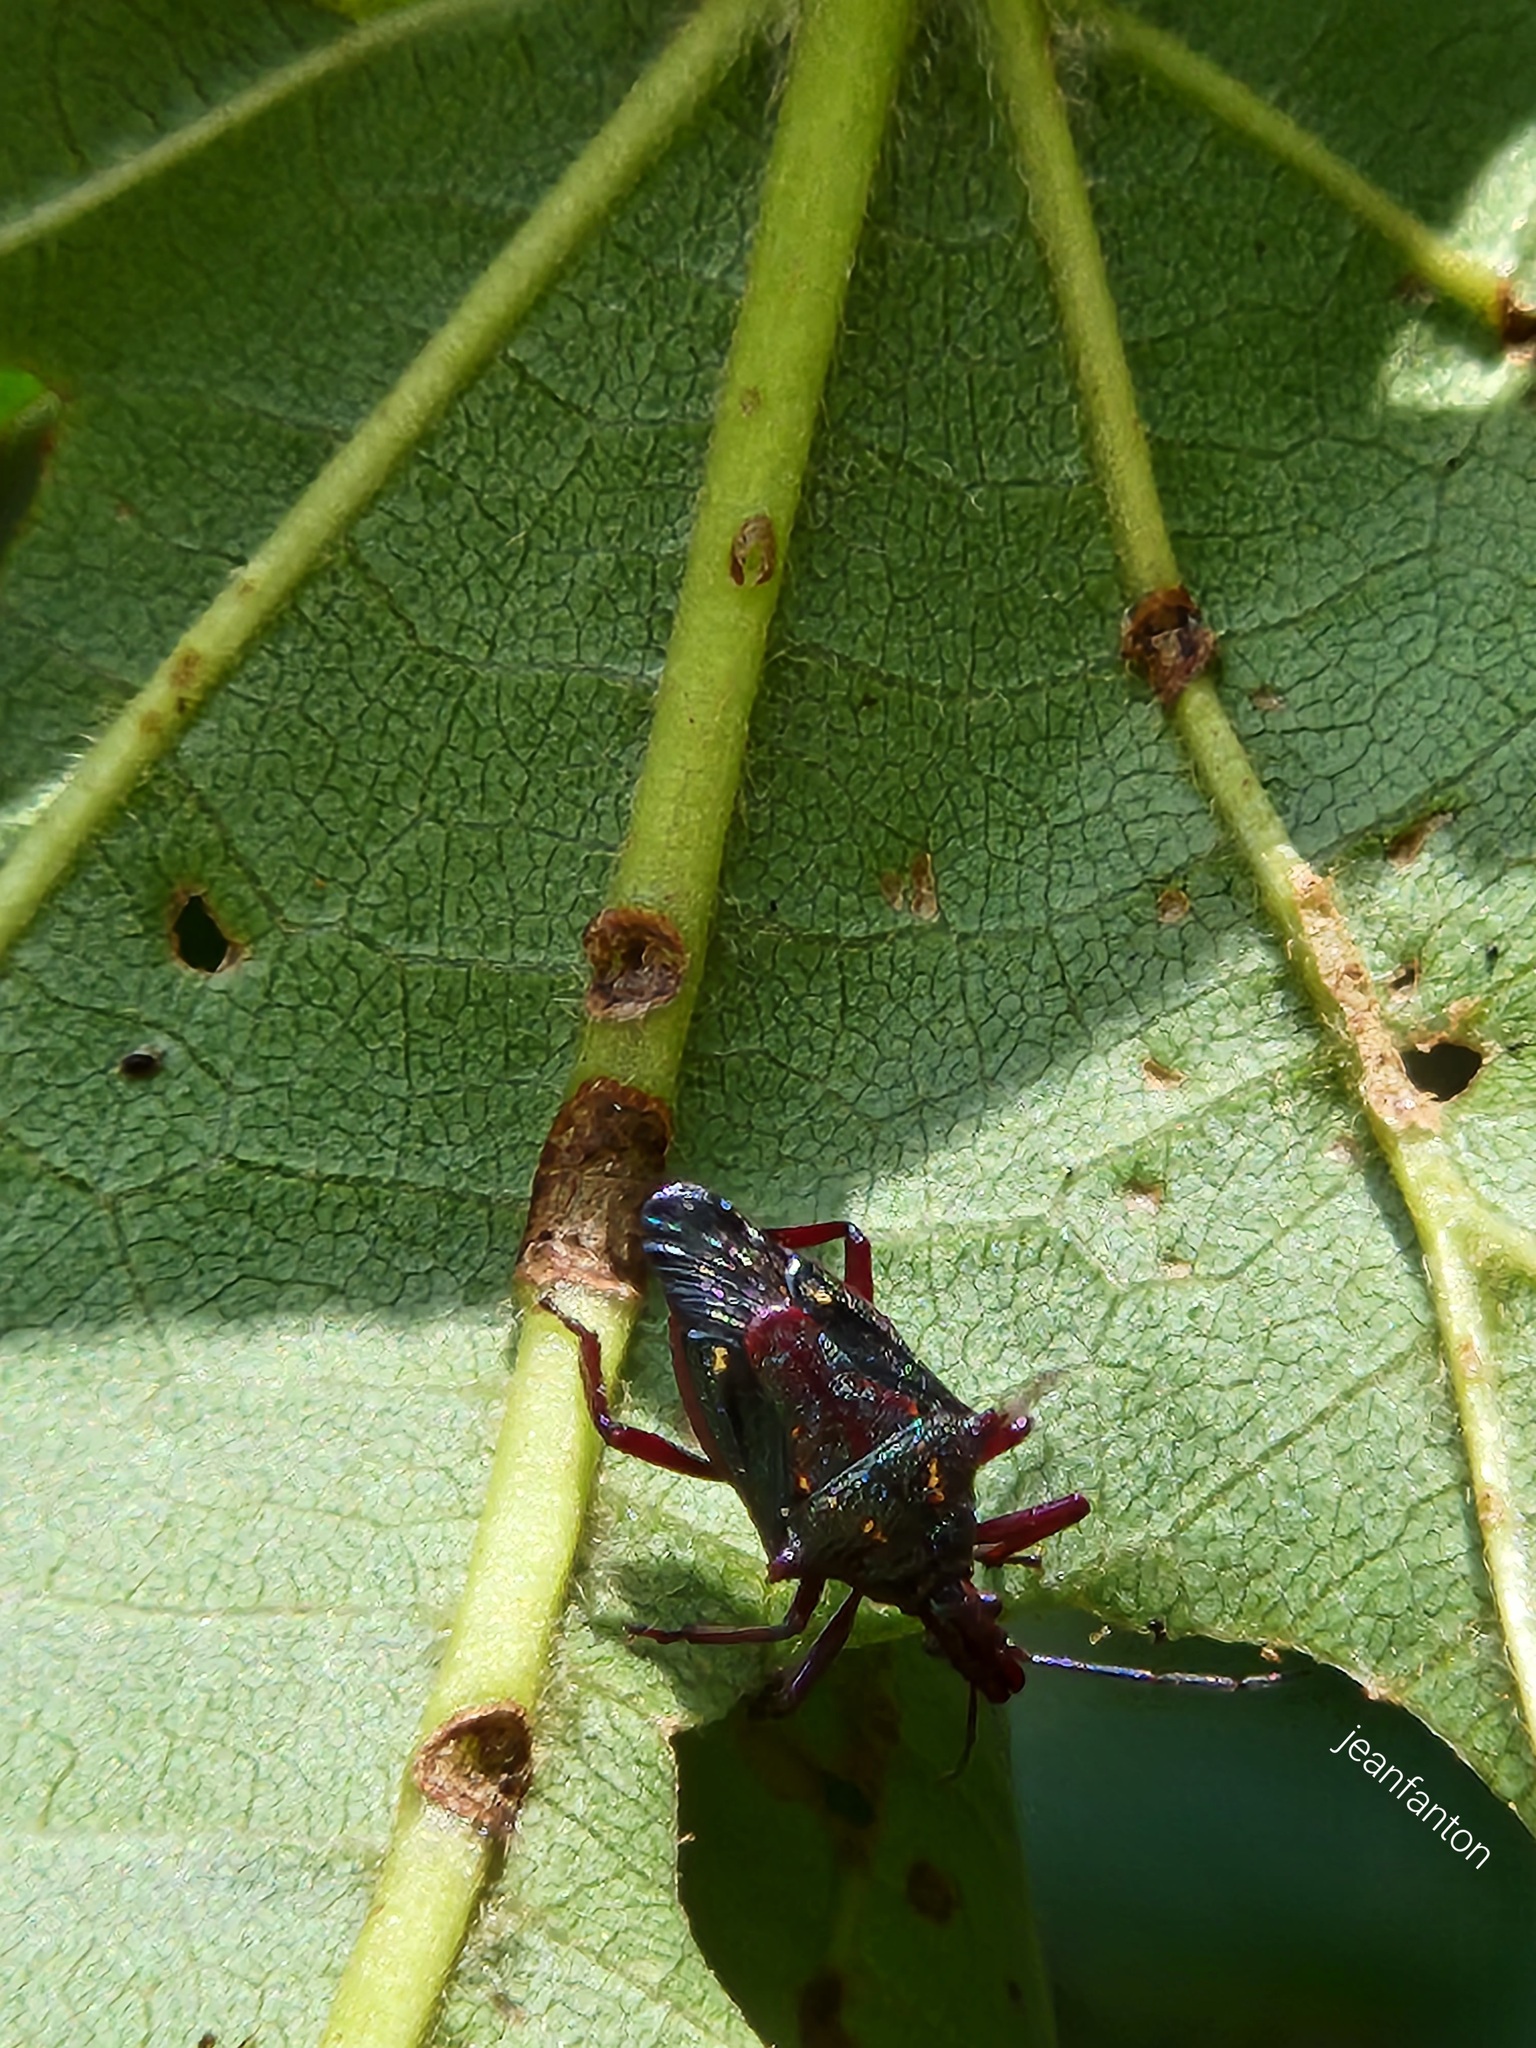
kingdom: Animalia
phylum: Arthropoda
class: Insecta
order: Hemiptera
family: Pentatomidae
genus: Heteroscelis
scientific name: Heteroscelis servillii
